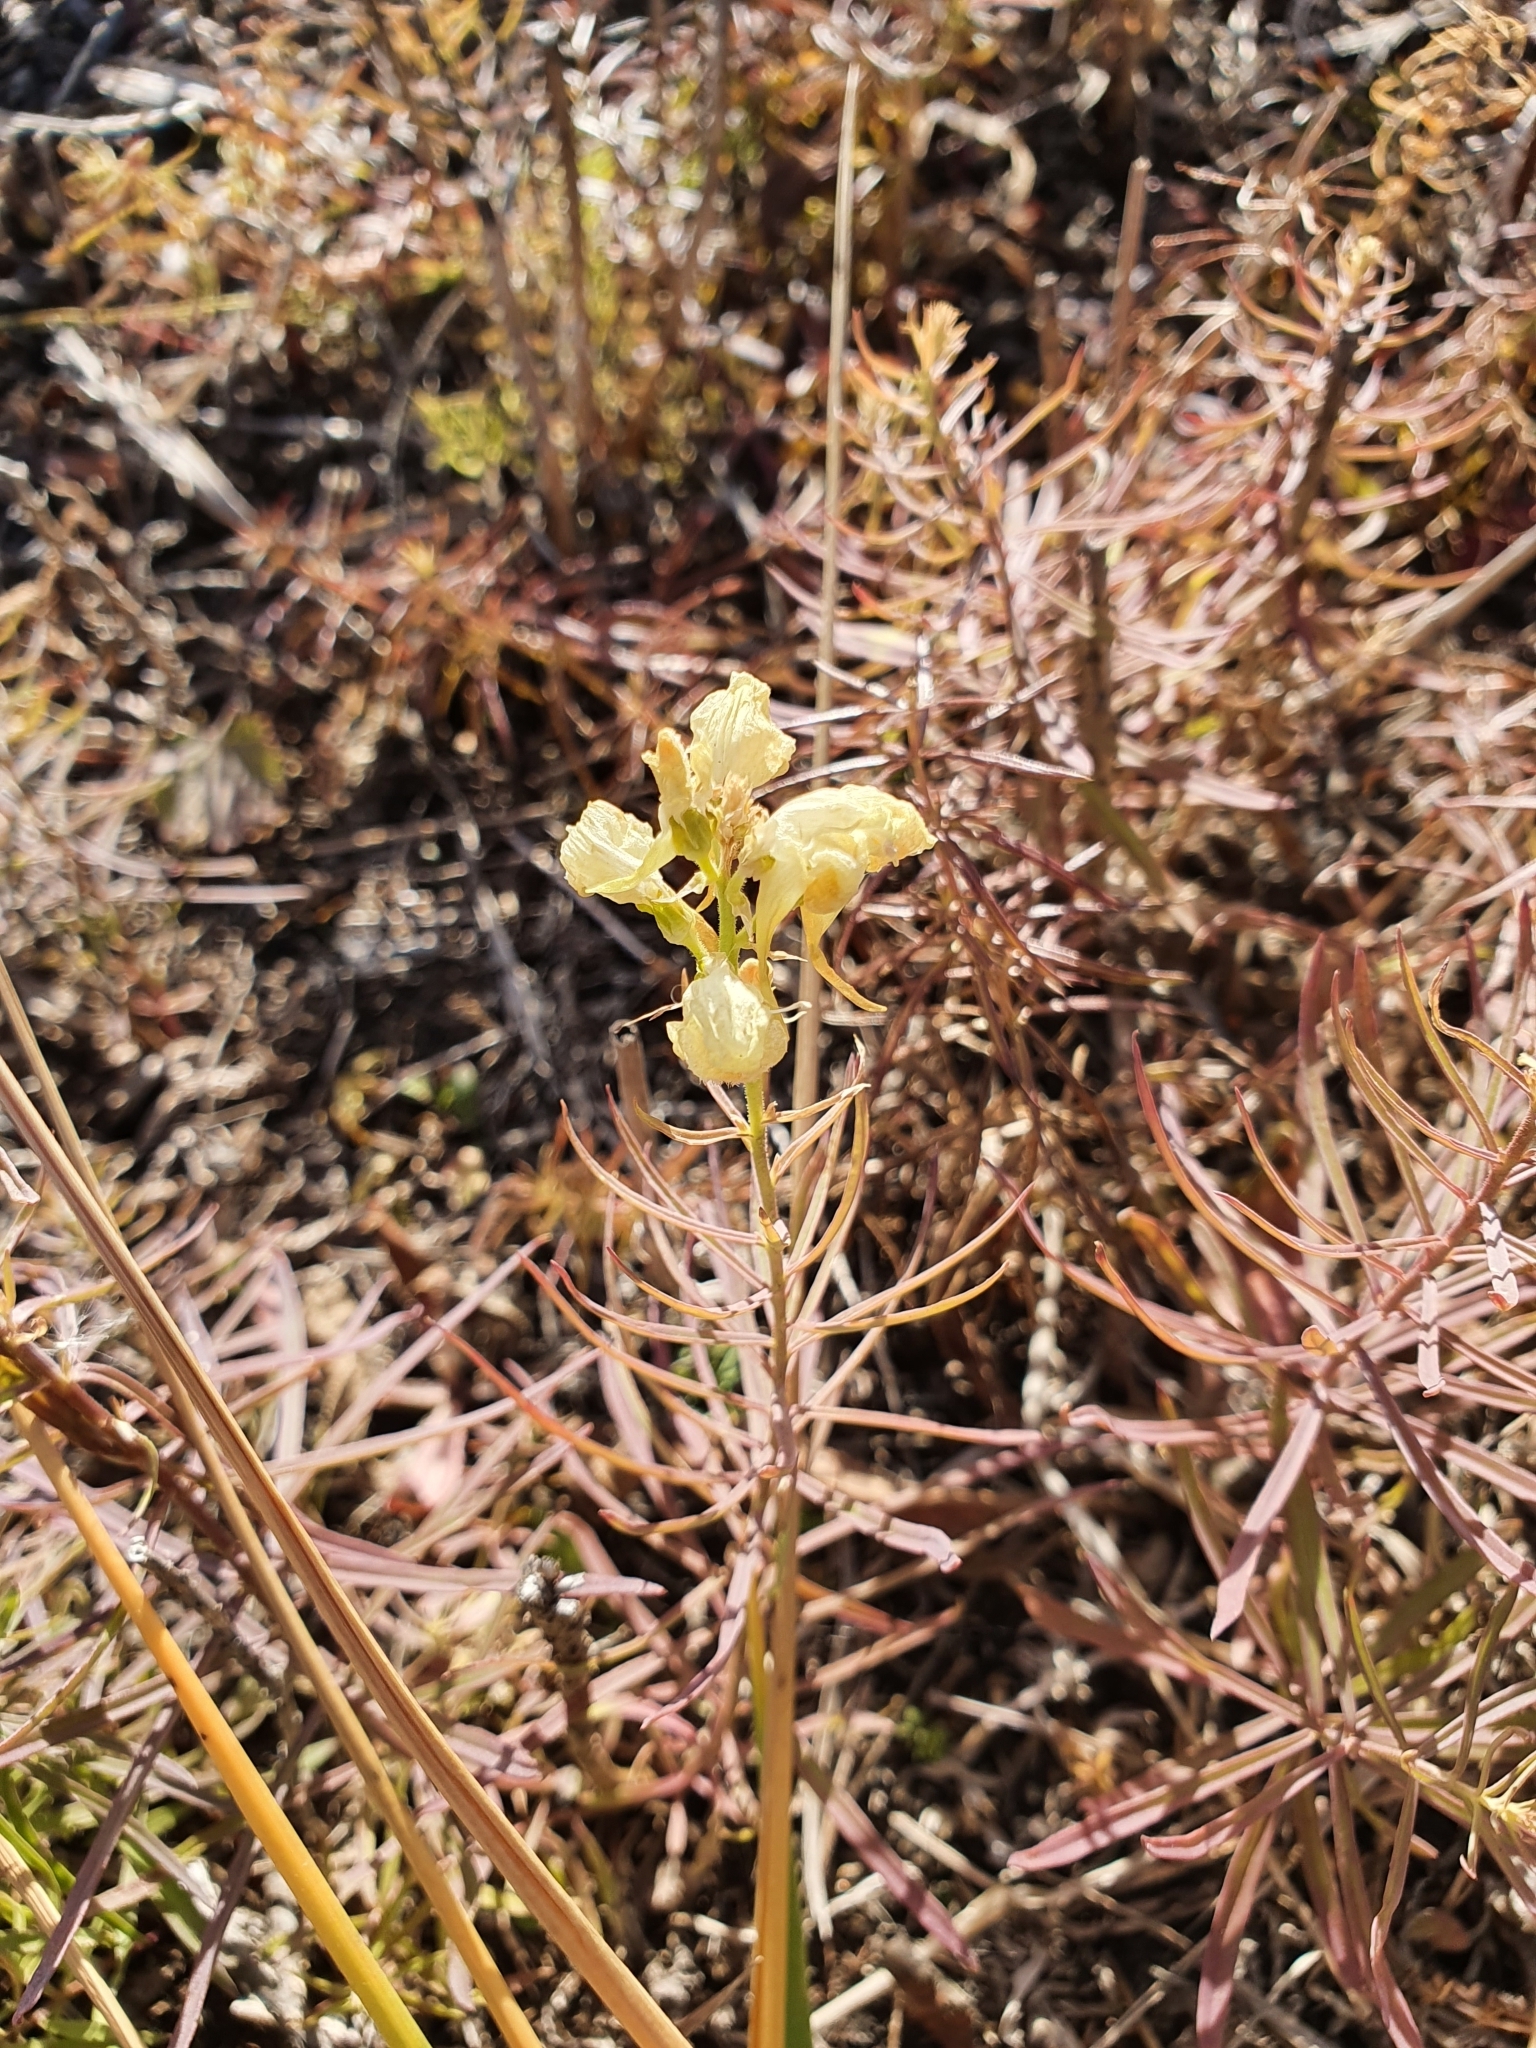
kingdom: Plantae
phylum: Tracheophyta
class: Magnoliopsida
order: Lamiales
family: Plantaginaceae
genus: Linaria
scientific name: Linaria vulgaris
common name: Butter and eggs
